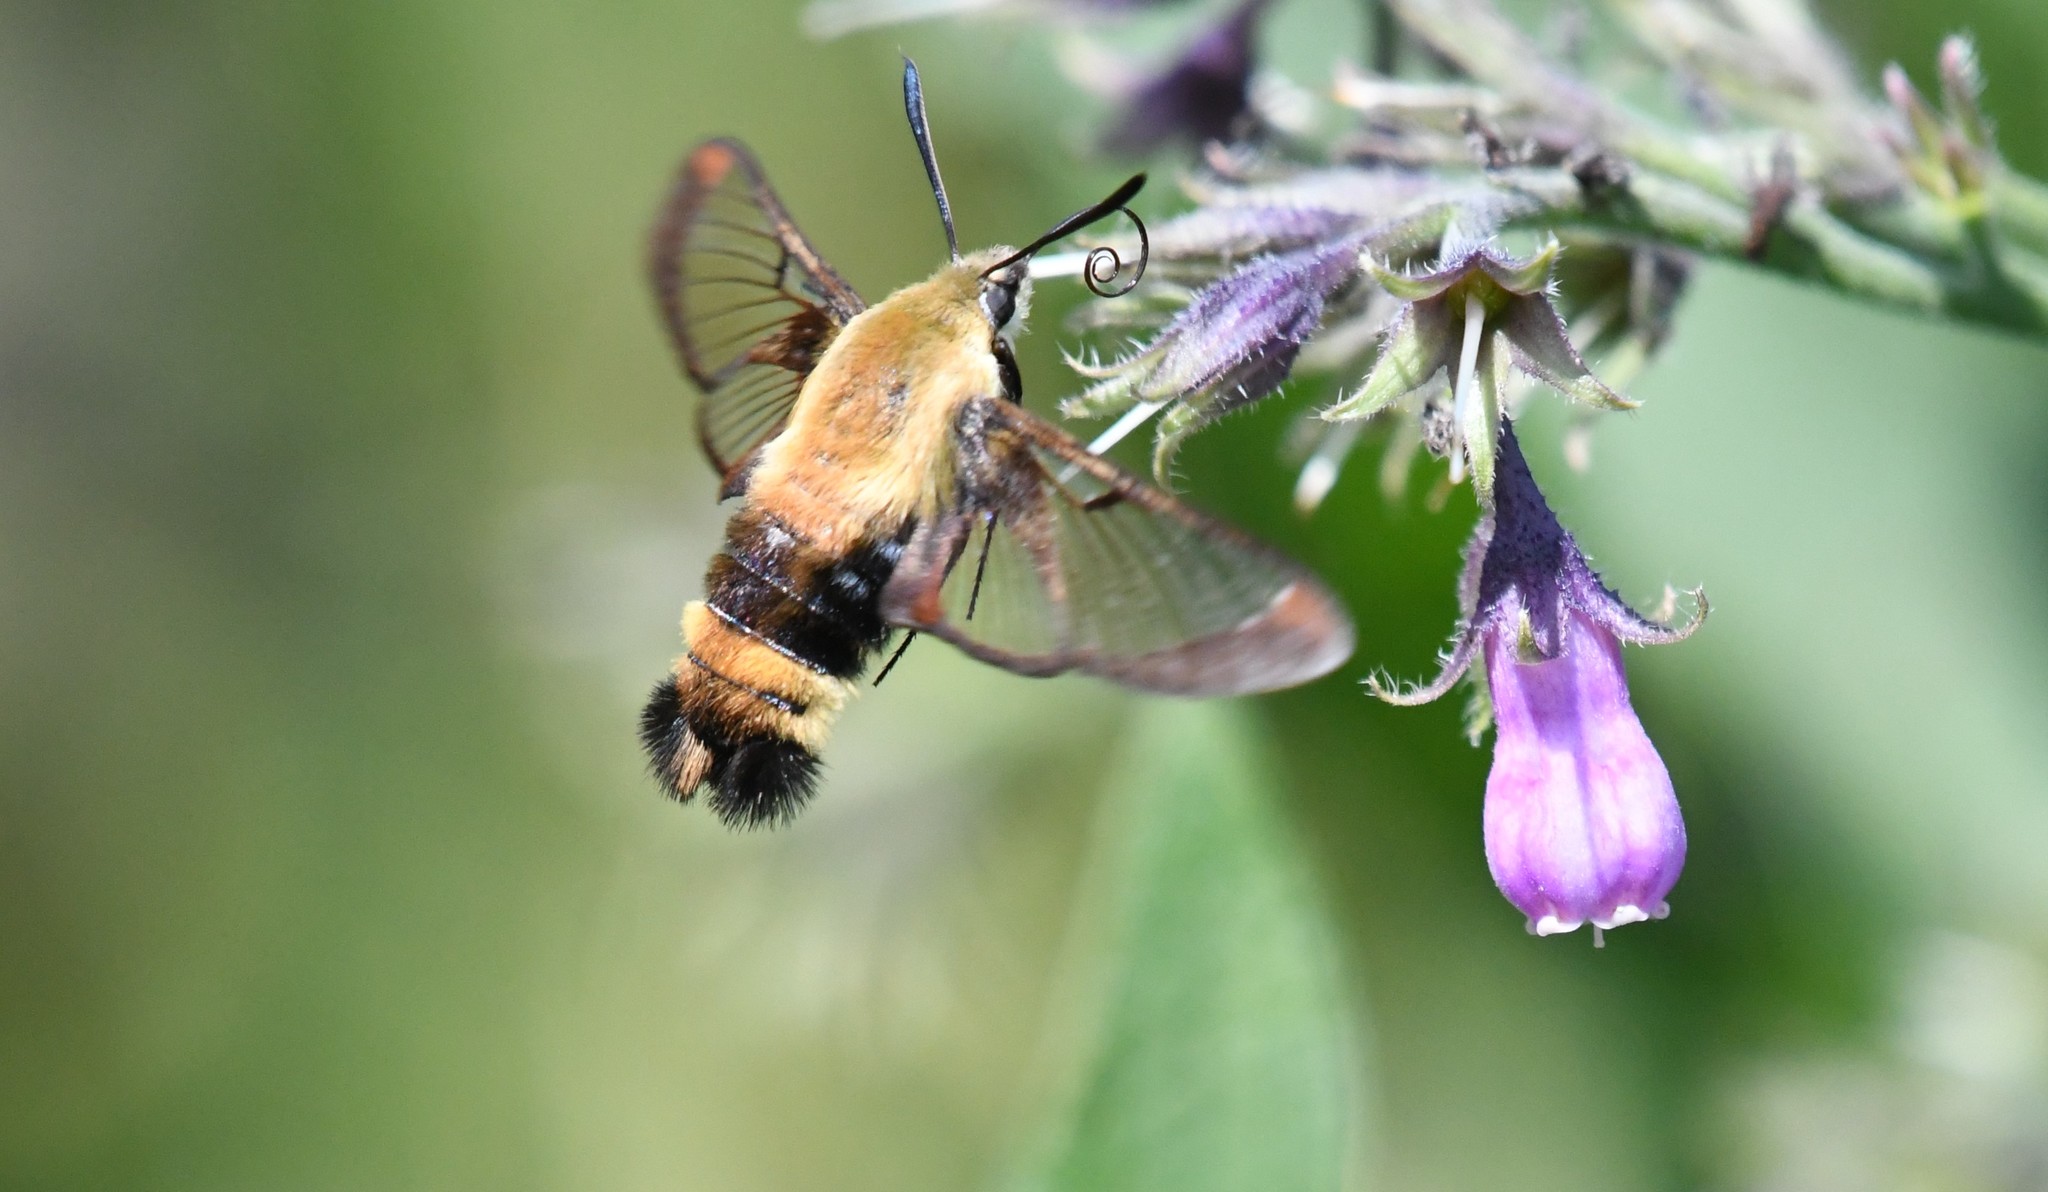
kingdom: Animalia
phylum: Arthropoda
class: Insecta
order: Lepidoptera
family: Sphingidae
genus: Hemaris
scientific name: Hemaris diffinis
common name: Bumblebee moth
